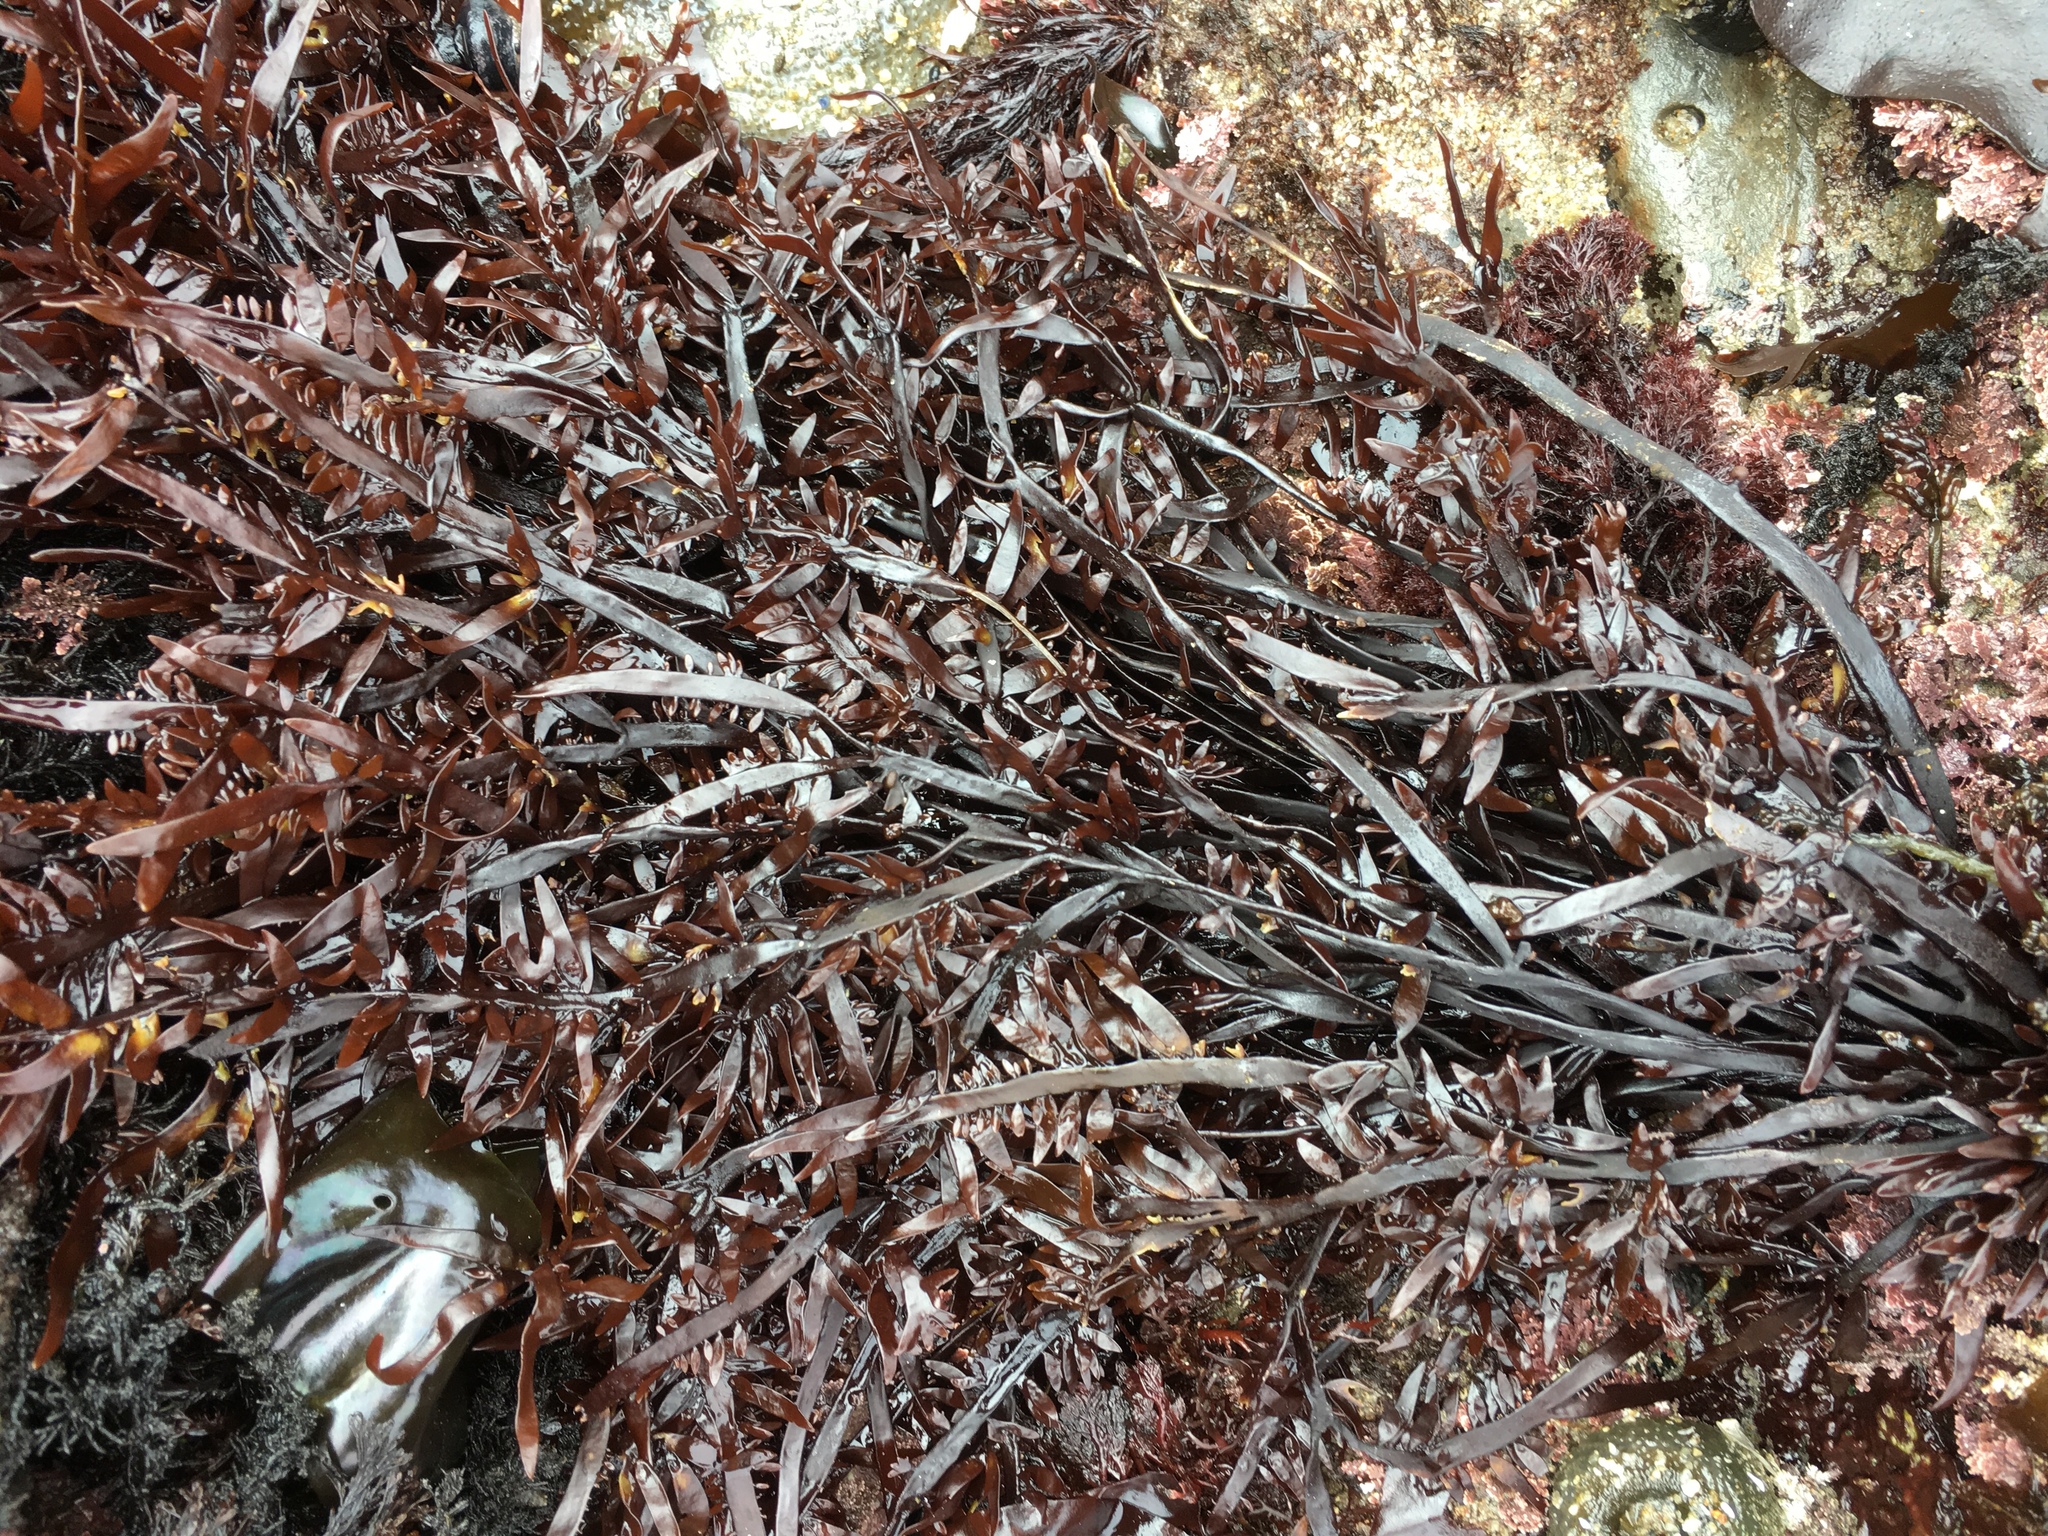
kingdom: Plantae
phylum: Rhodophyta
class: Florideophyceae
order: Halymeniales
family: Halymeniaceae
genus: Grateloupia
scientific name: Grateloupia Prionitis lanceolata
